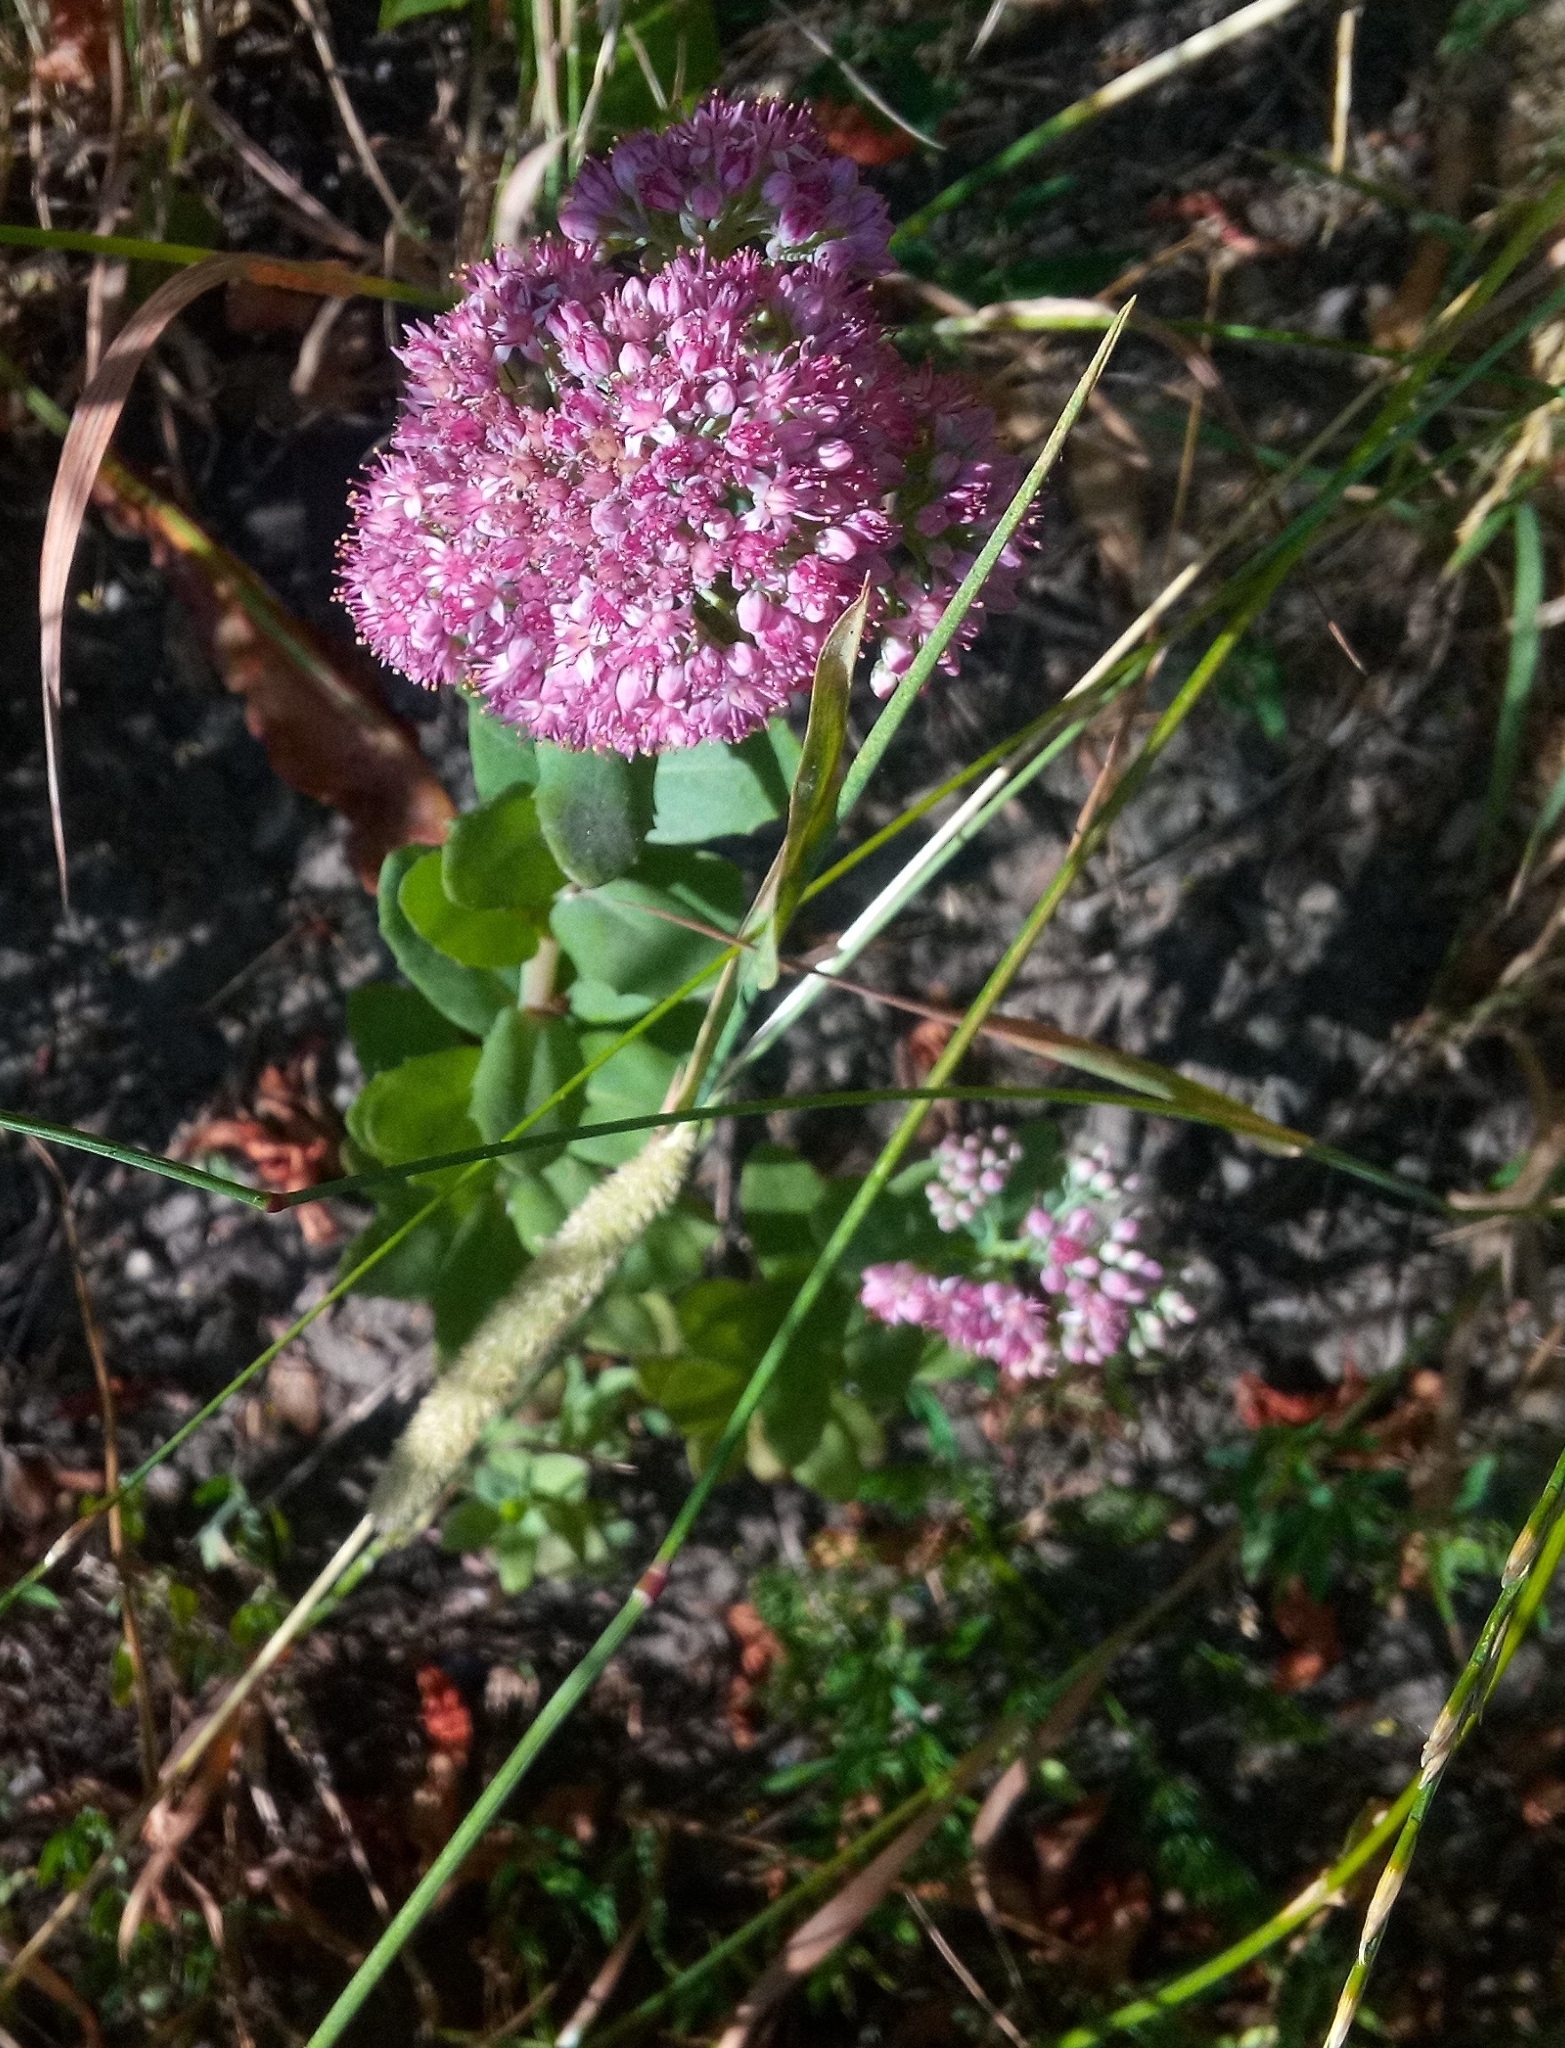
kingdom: Plantae
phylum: Tracheophyta
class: Magnoliopsida
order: Saxifragales
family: Crassulaceae
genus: Hylotelephium
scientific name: Hylotelephium telephium
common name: Live-forever
